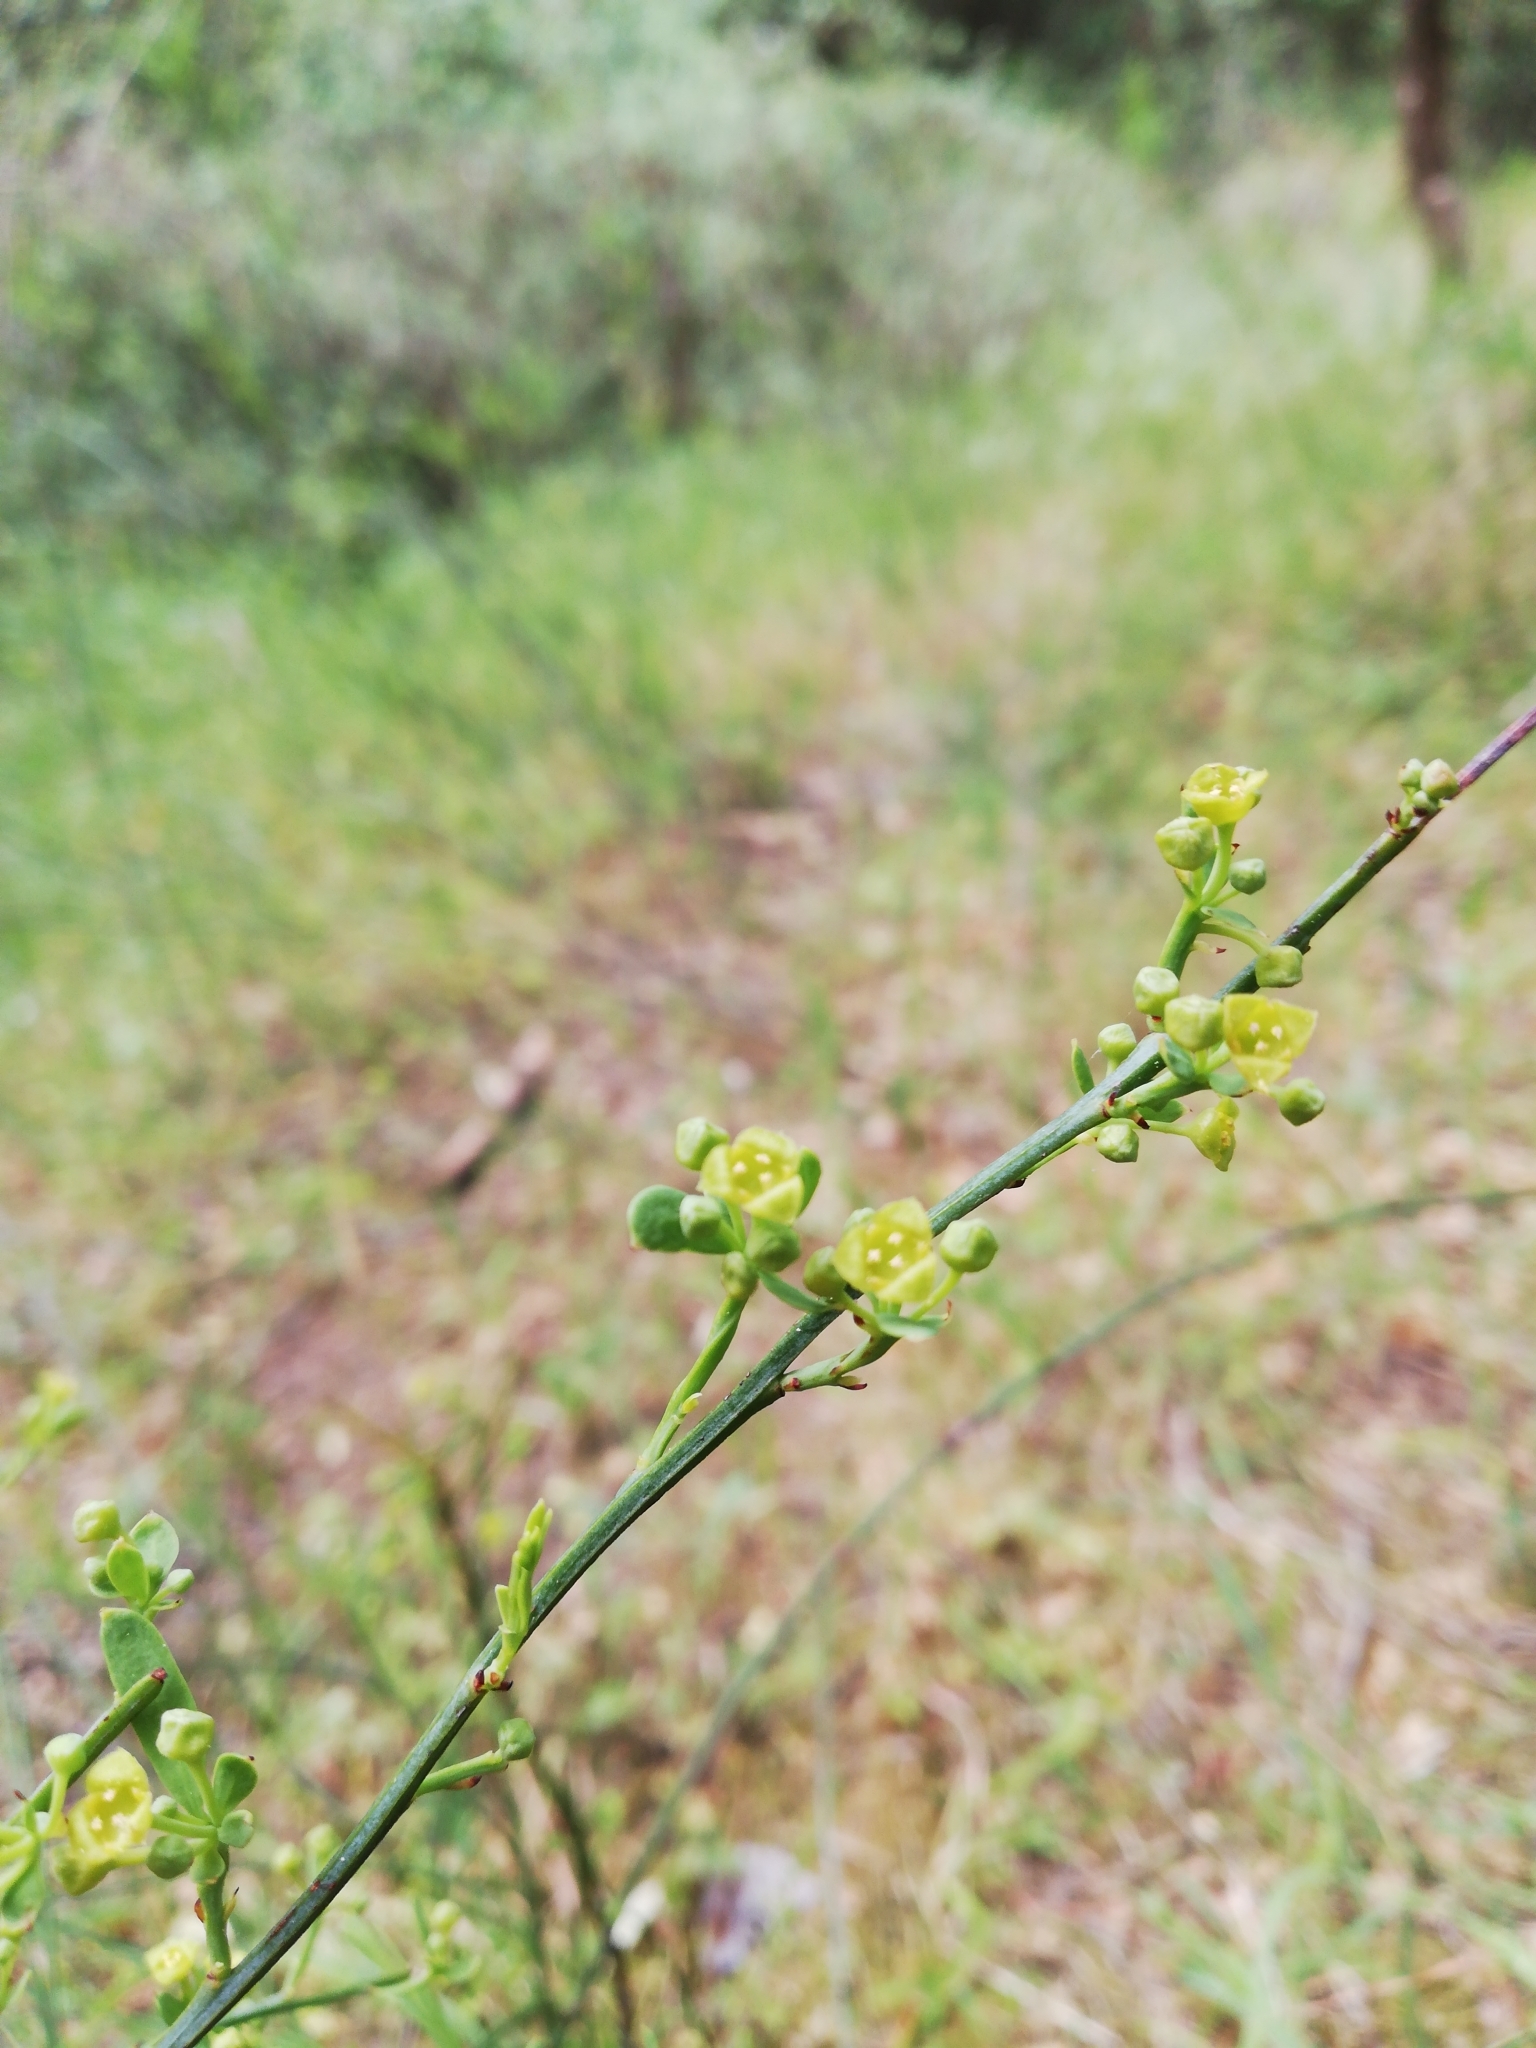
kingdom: Plantae
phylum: Tracheophyta
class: Magnoliopsida
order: Santalales
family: Santalaceae
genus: Osyris
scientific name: Osyris alba
